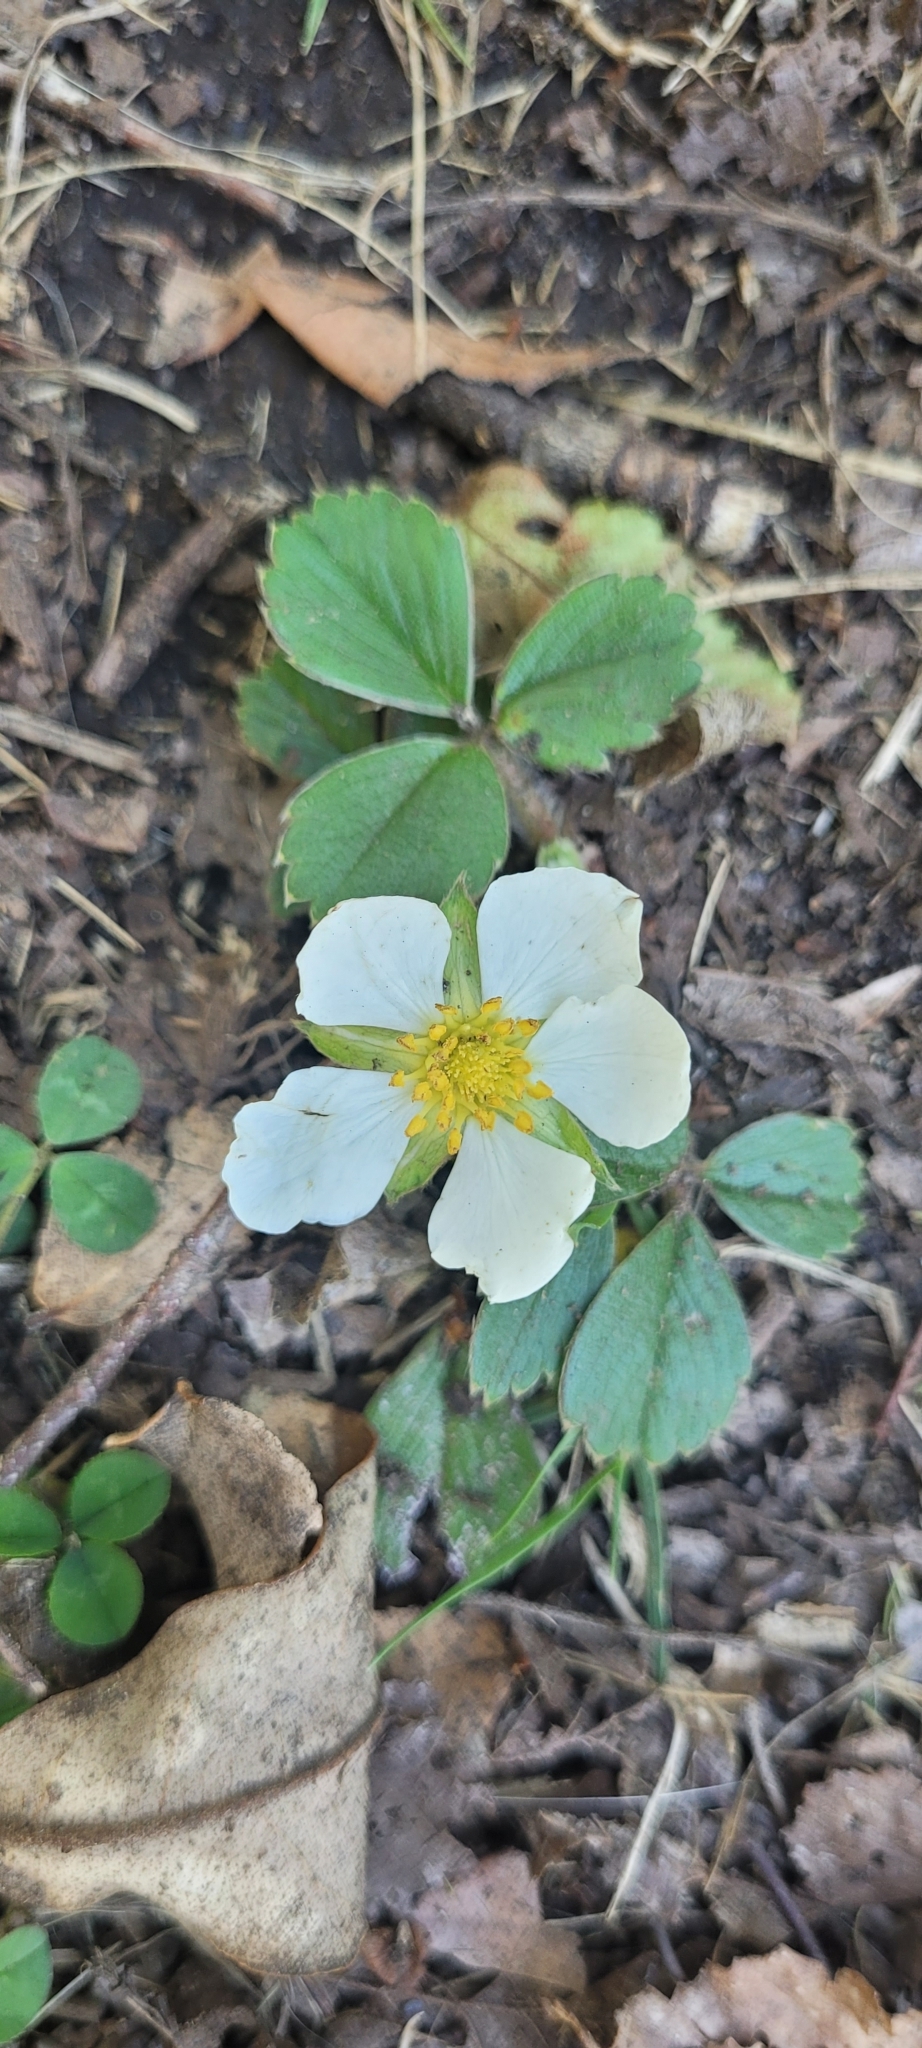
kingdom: Plantae
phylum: Tracheophyta
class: Magnoliopsida
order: Rosales
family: Rosaceae
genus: Fragaria
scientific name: Fragaria chiloensis
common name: Beach strawberry
